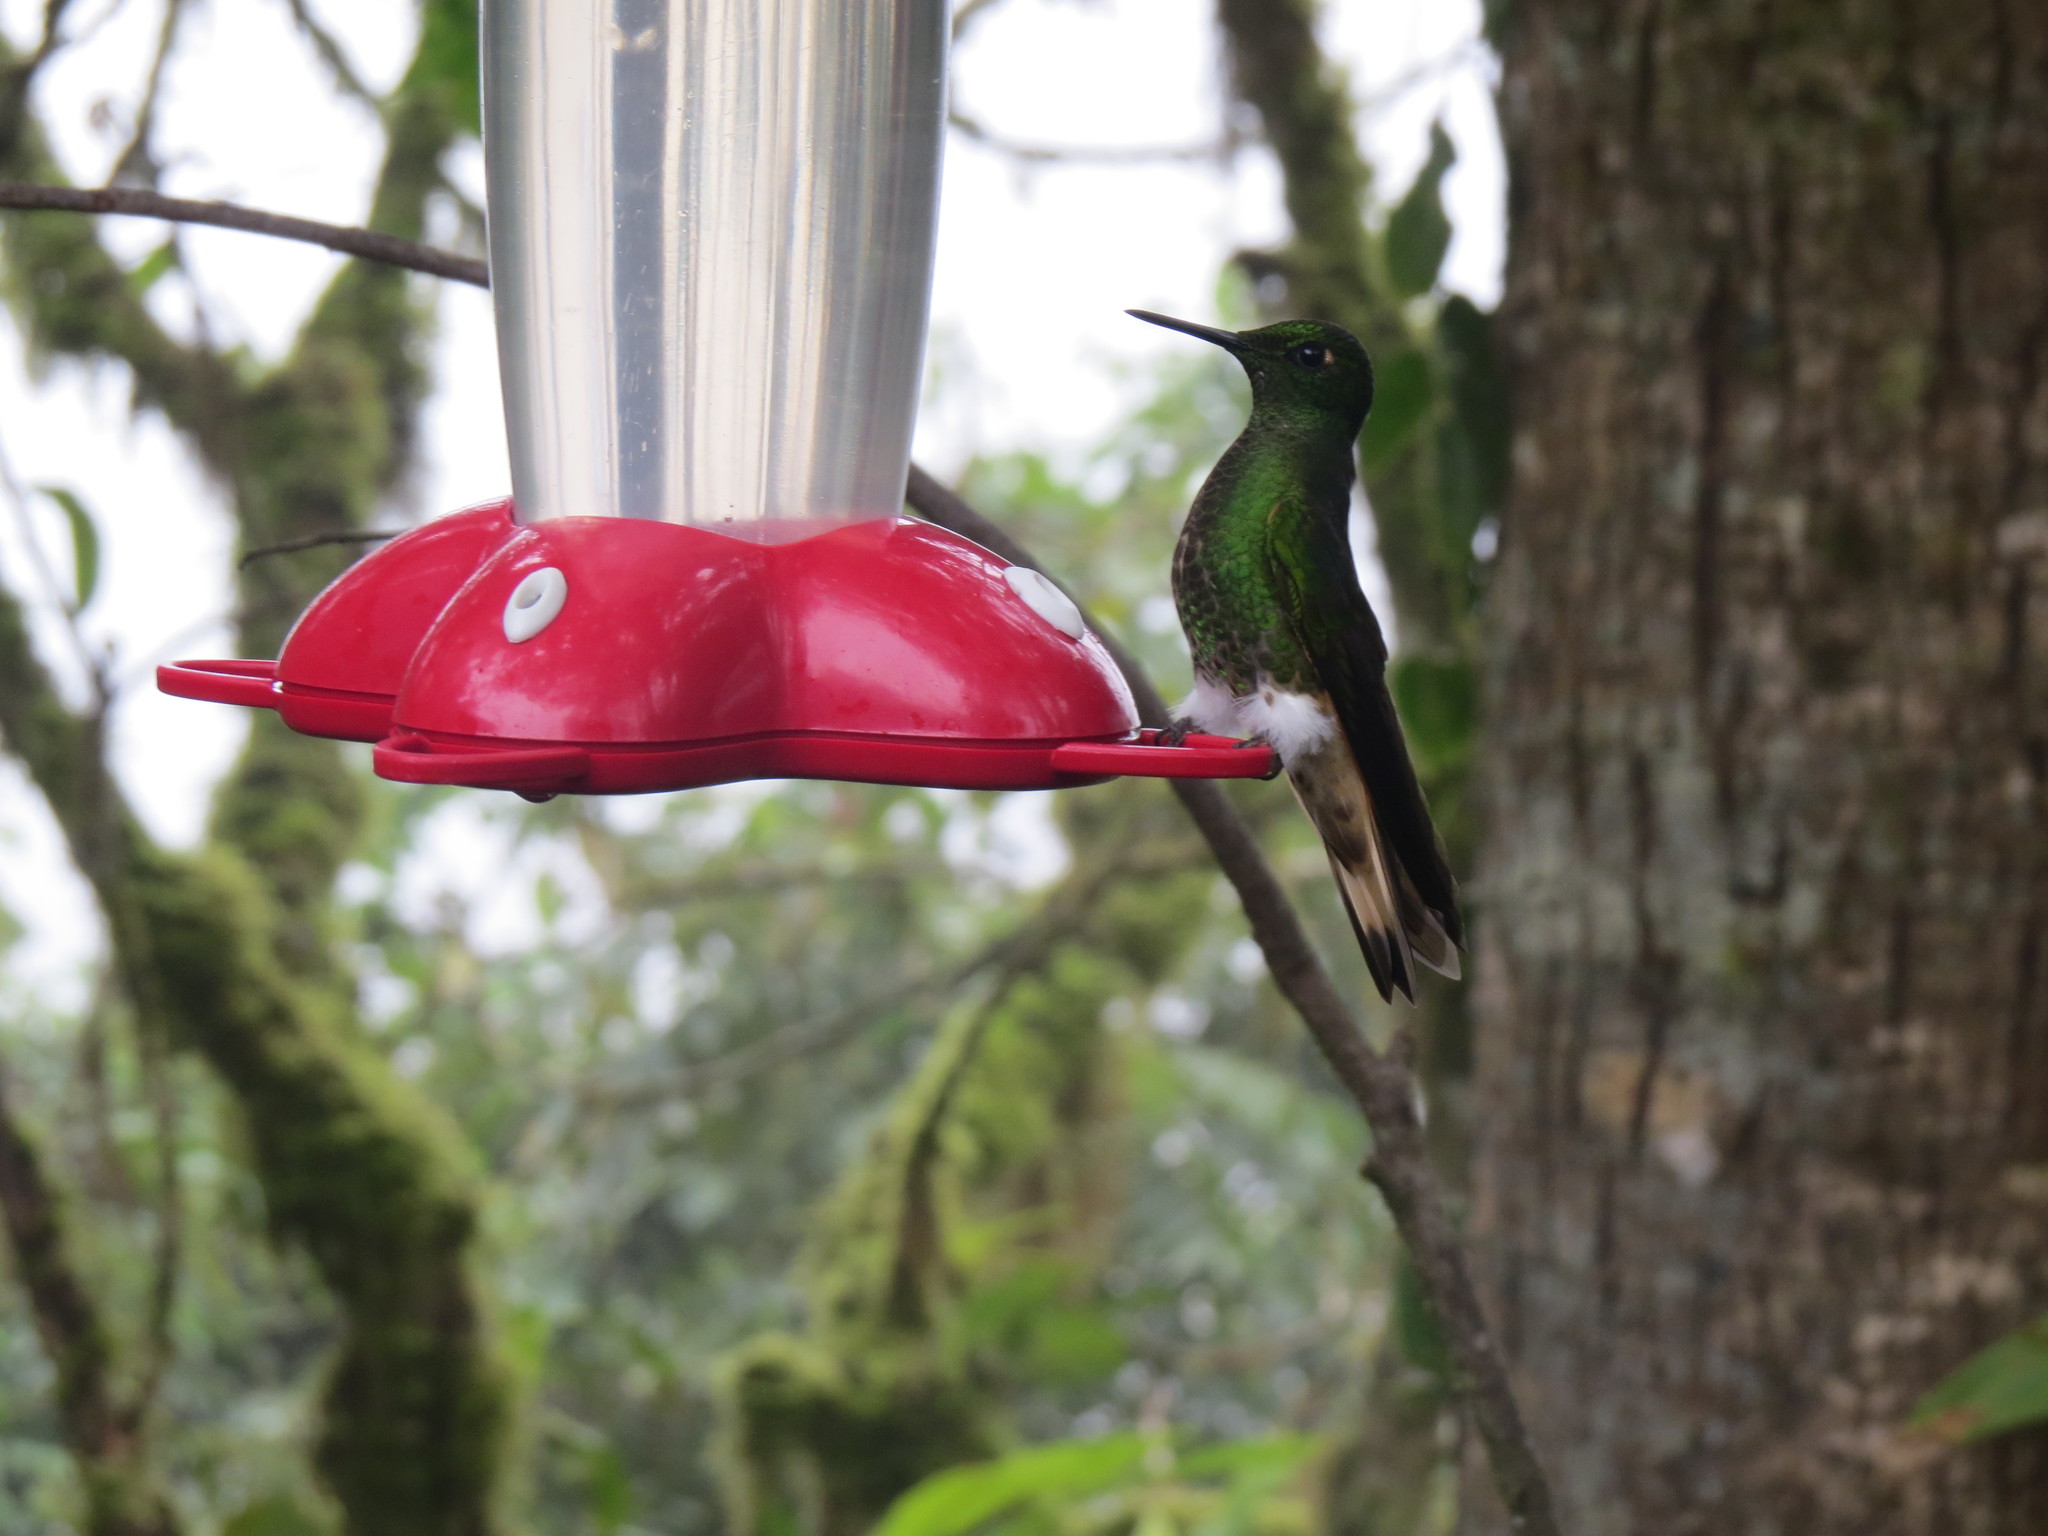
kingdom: Animalia
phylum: Chordata
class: Aves
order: Apodiformes
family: Trochilidae
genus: Ocreatus
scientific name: Ocreatus underwoodii
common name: Booted racket-tail
